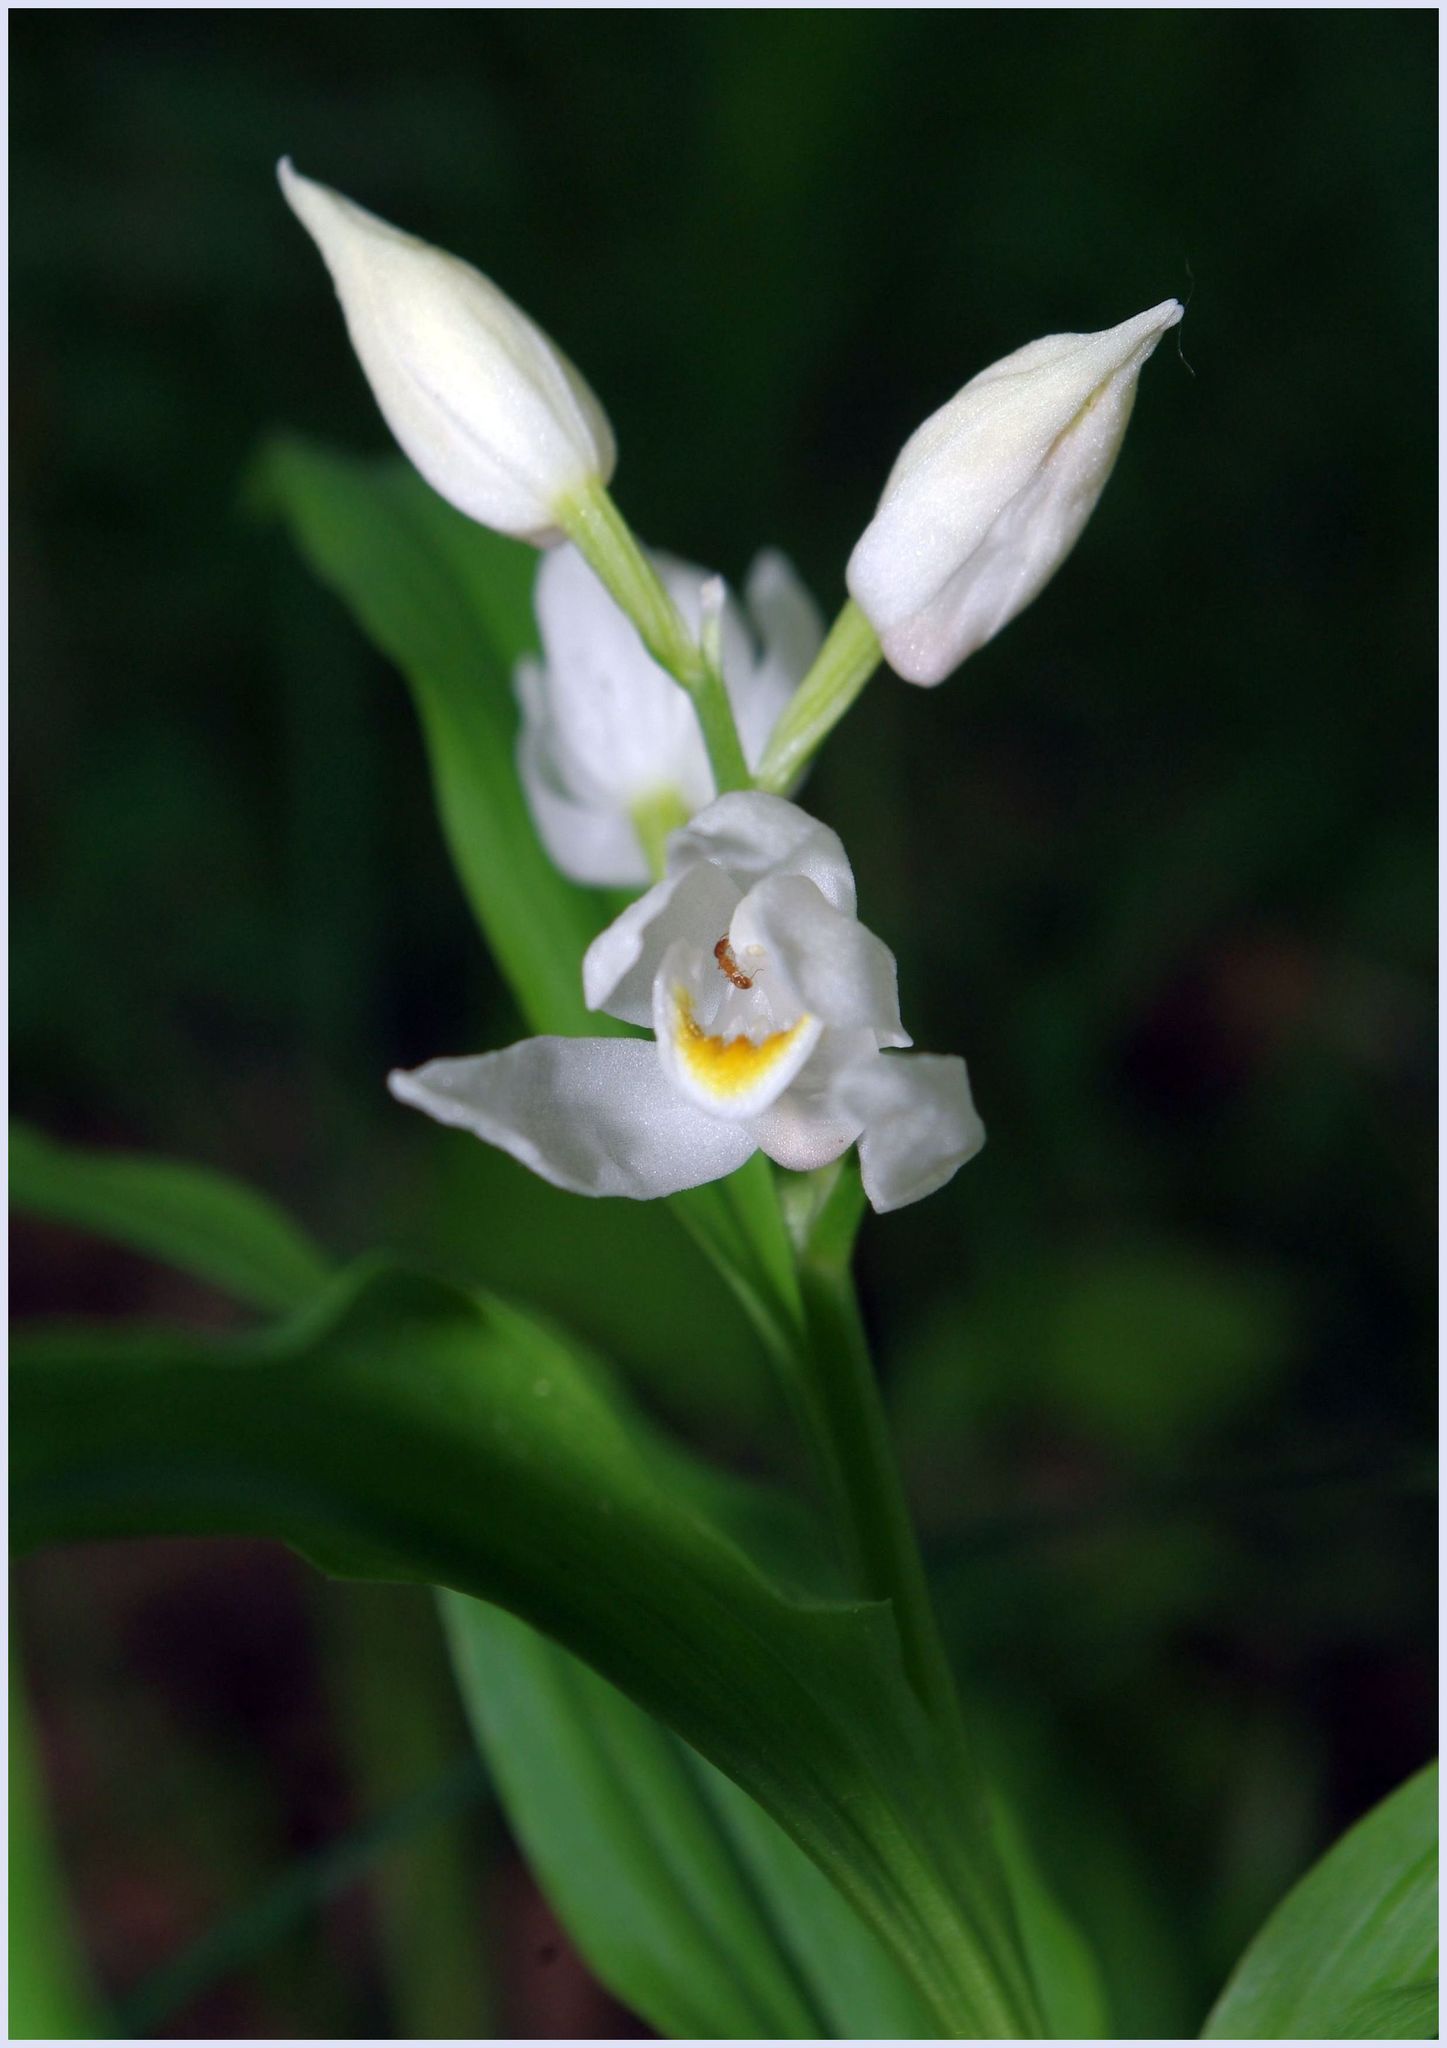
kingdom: Plantae
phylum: Tracheophyta
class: Liliopsida
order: Asparagales
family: Orchidaceae
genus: Cephalanthera
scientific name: Cephalanthera longifolia
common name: Narrow-leaved helleborine
